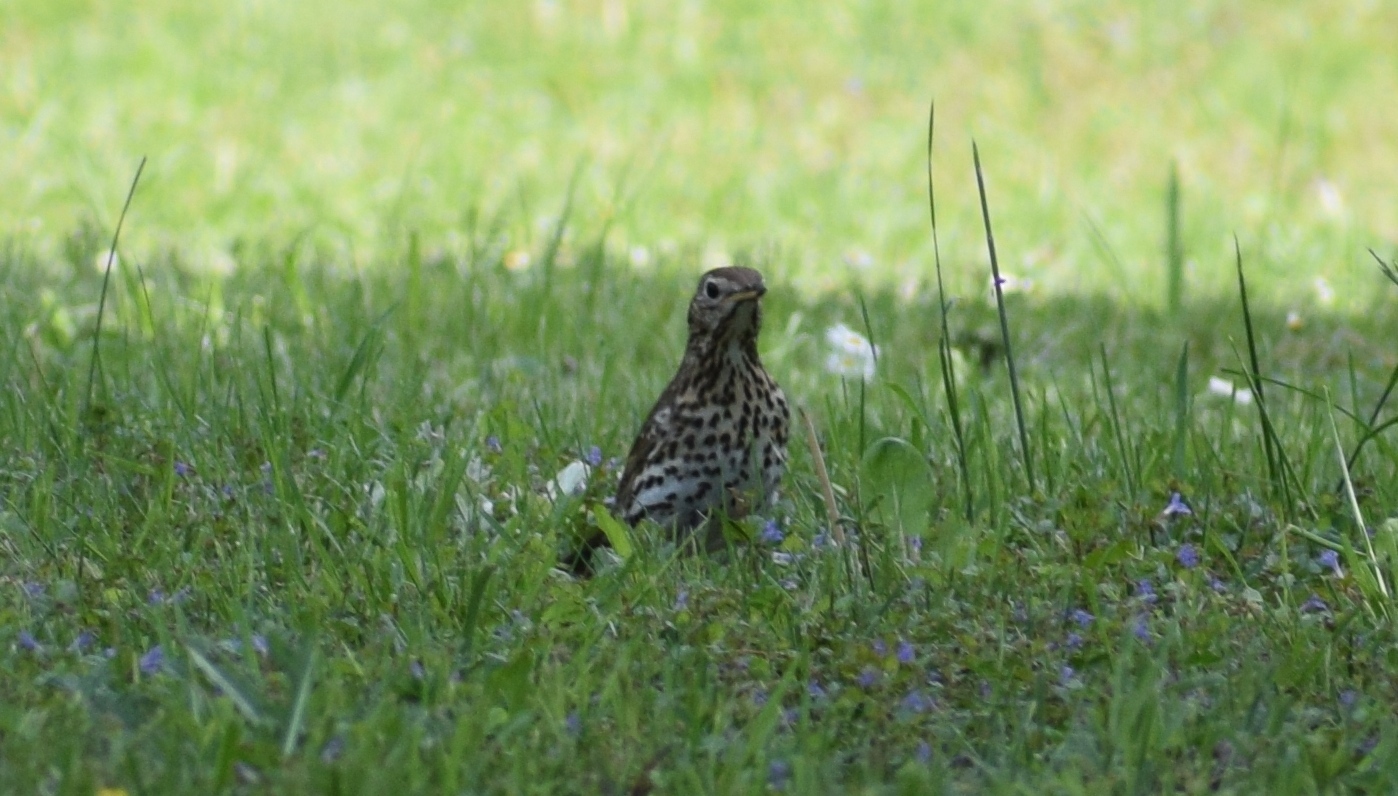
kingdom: Animalia
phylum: Chordata
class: Aves
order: Passeriformes
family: Turdidae
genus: Turdus
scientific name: Turdus philomelos
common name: Song thrush
